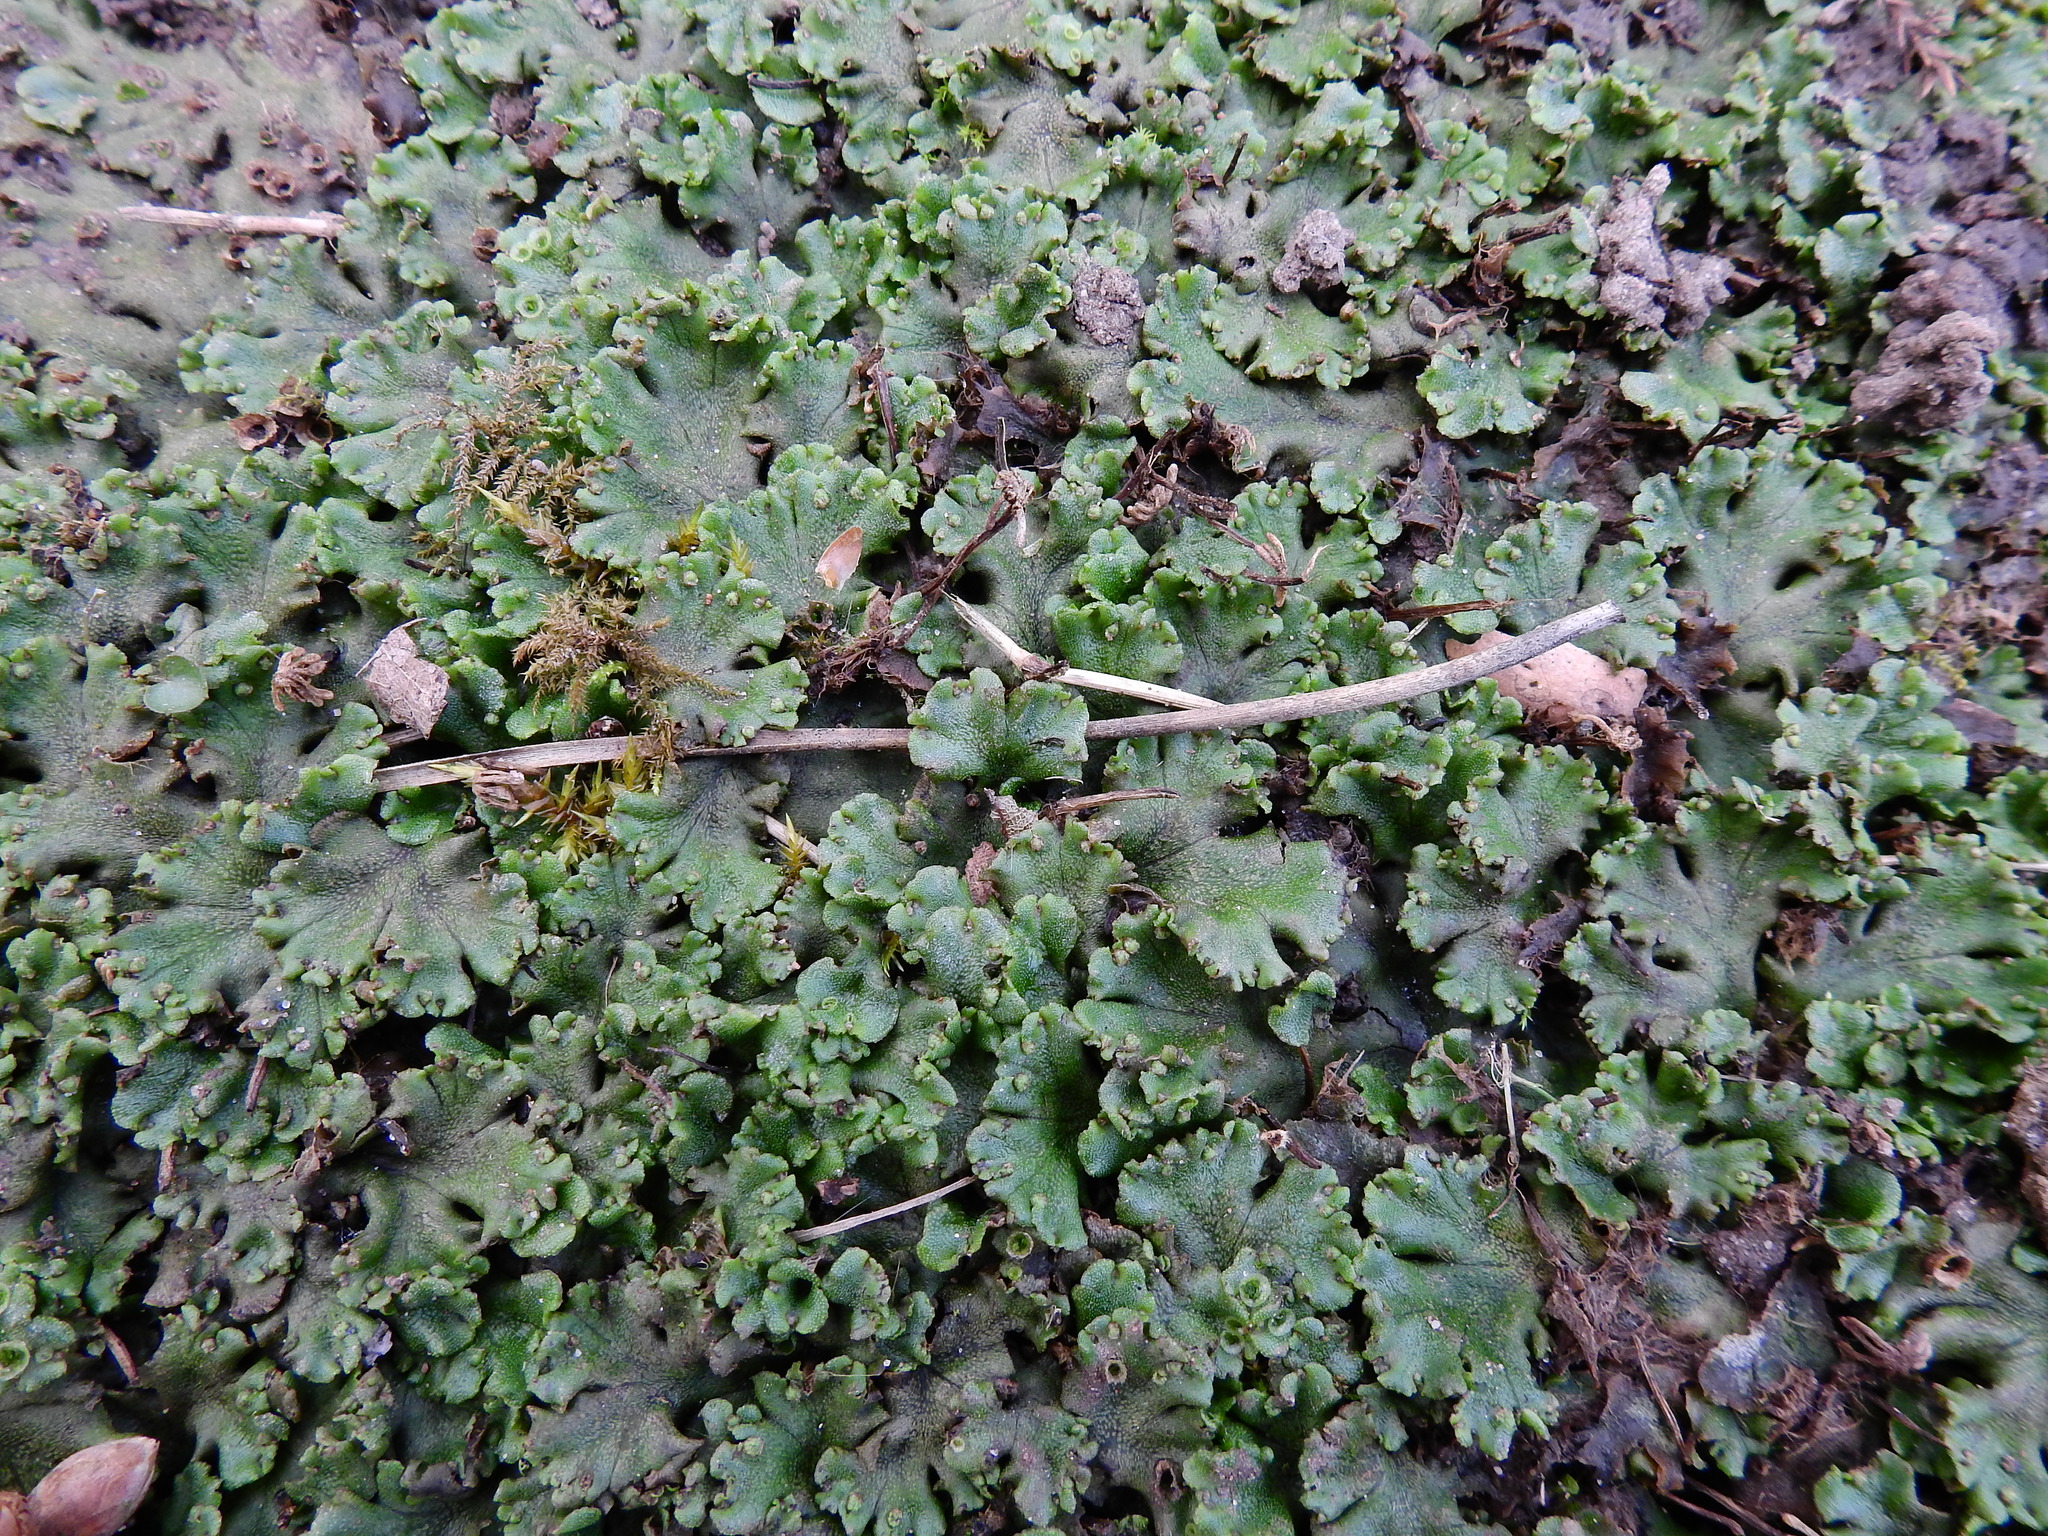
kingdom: Plantae
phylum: Marchantiophyta
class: Marchantiopsida
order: Marchantiales
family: Marchantiaceae
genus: Marchantia
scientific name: Marchantia polymorpha
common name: Common liverwort
